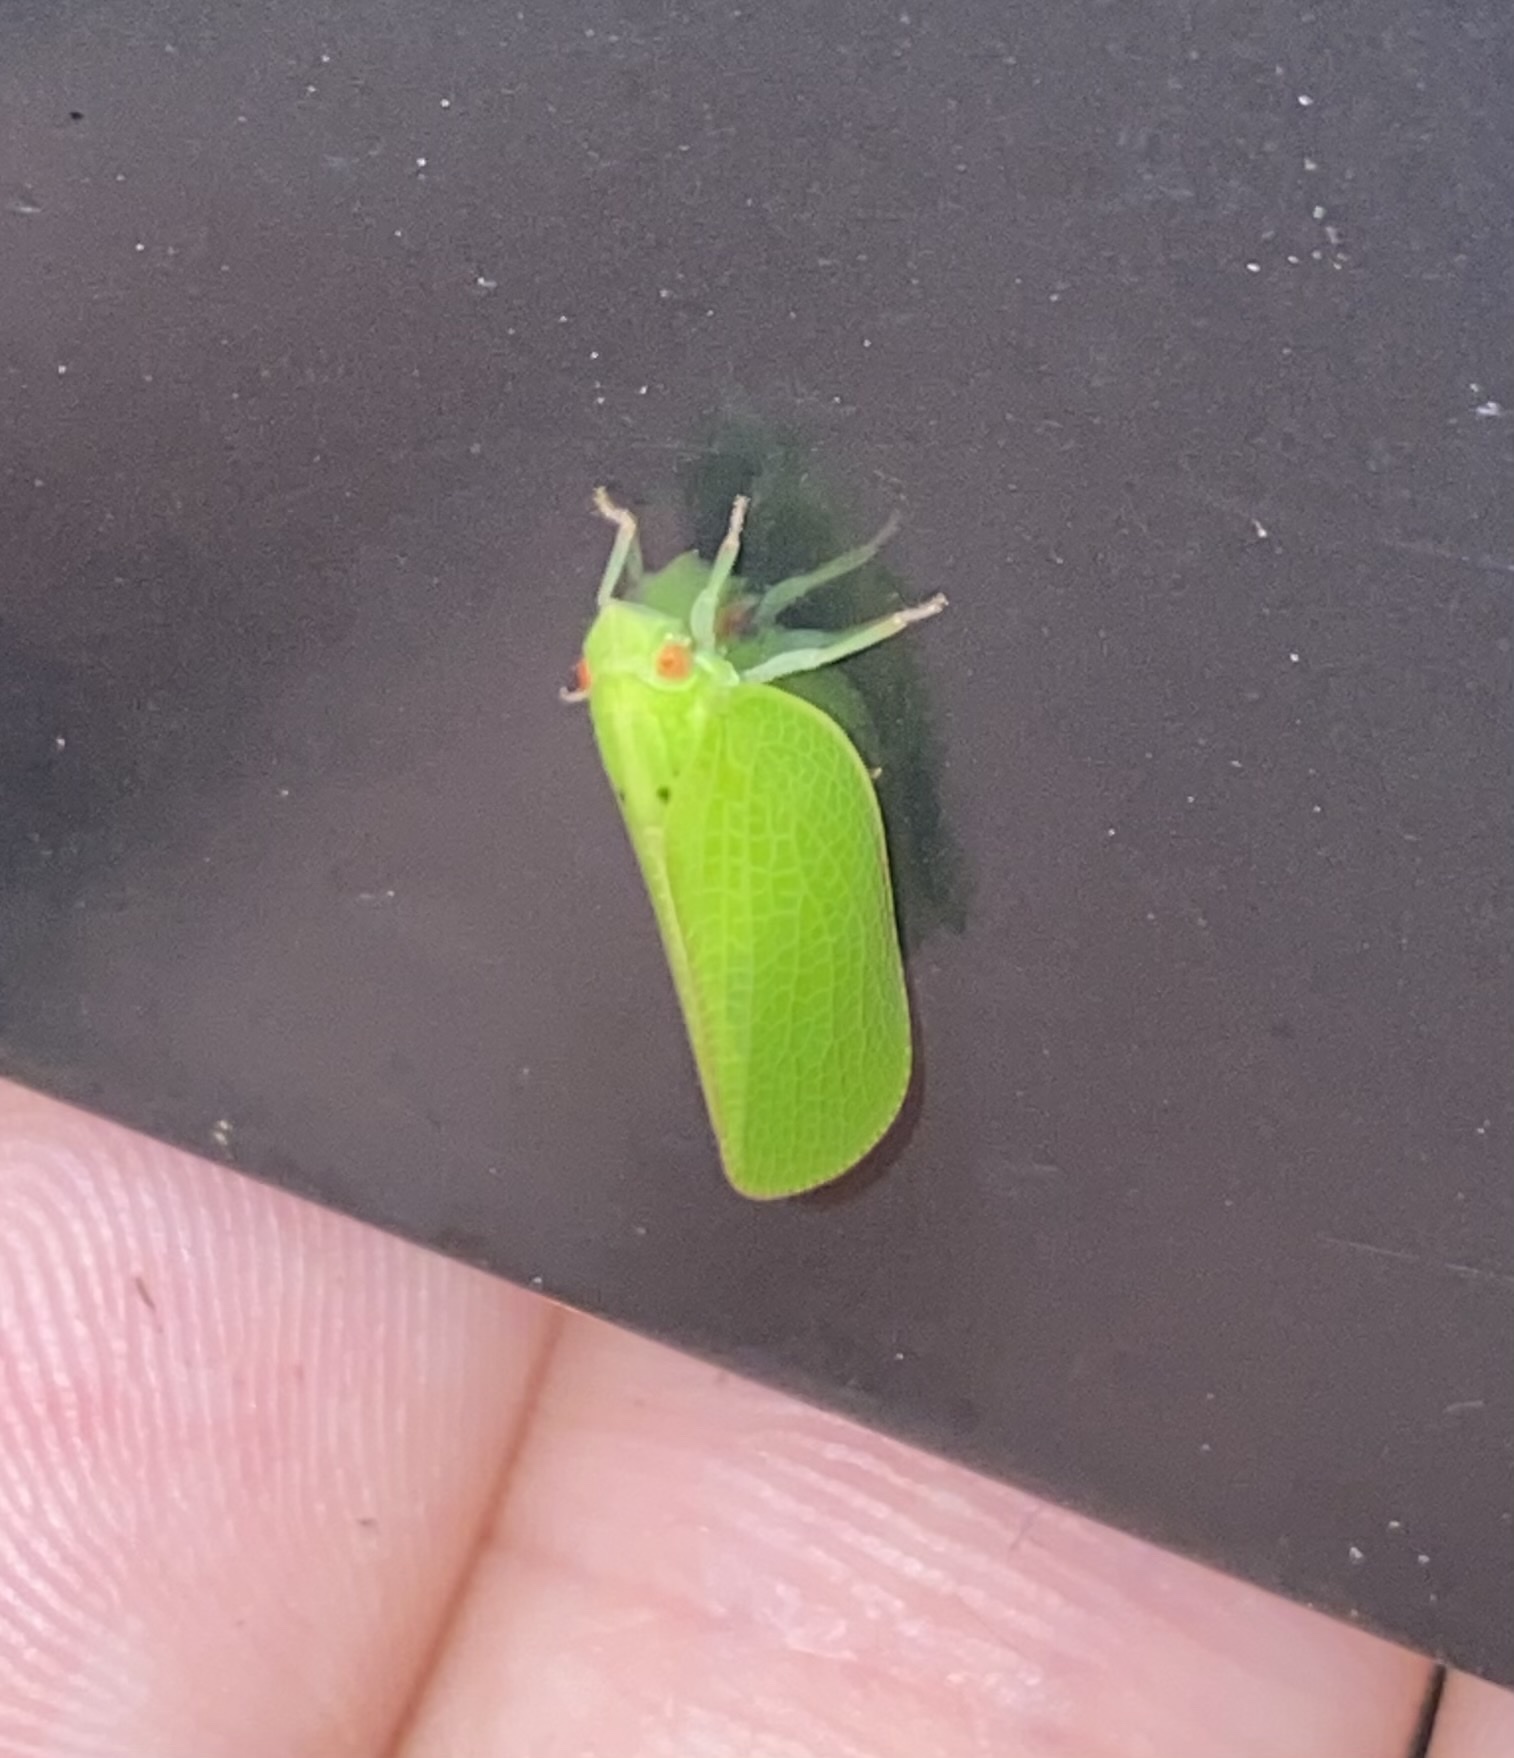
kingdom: Animalia
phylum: Arthropoda
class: Insecta
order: Hemiptera
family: Acanaloniidae
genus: Acanalonia
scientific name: Acanalonia conica
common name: Green cone-headed planthopper
